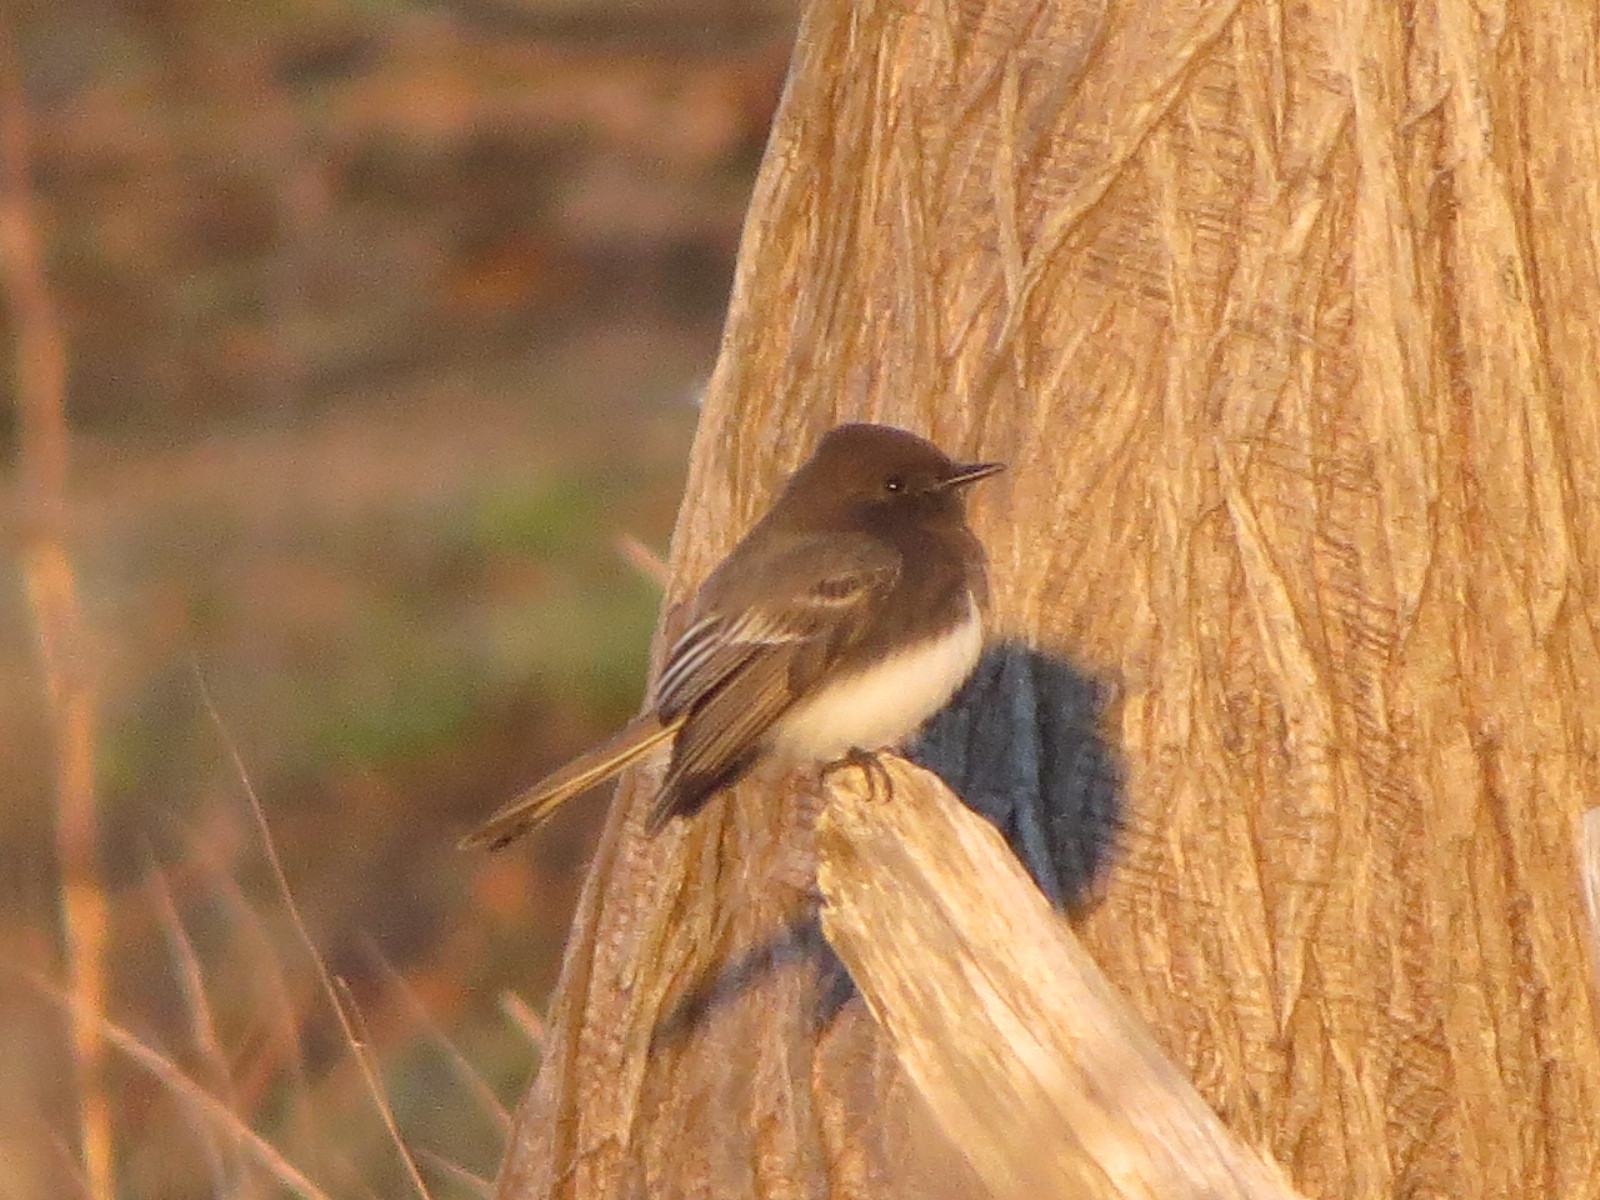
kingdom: Animalia
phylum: Chordata
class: Aves
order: Passeriformes
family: Tyrannidae
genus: Sayornis
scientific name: Sayornis nigricans
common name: Black phoebe
